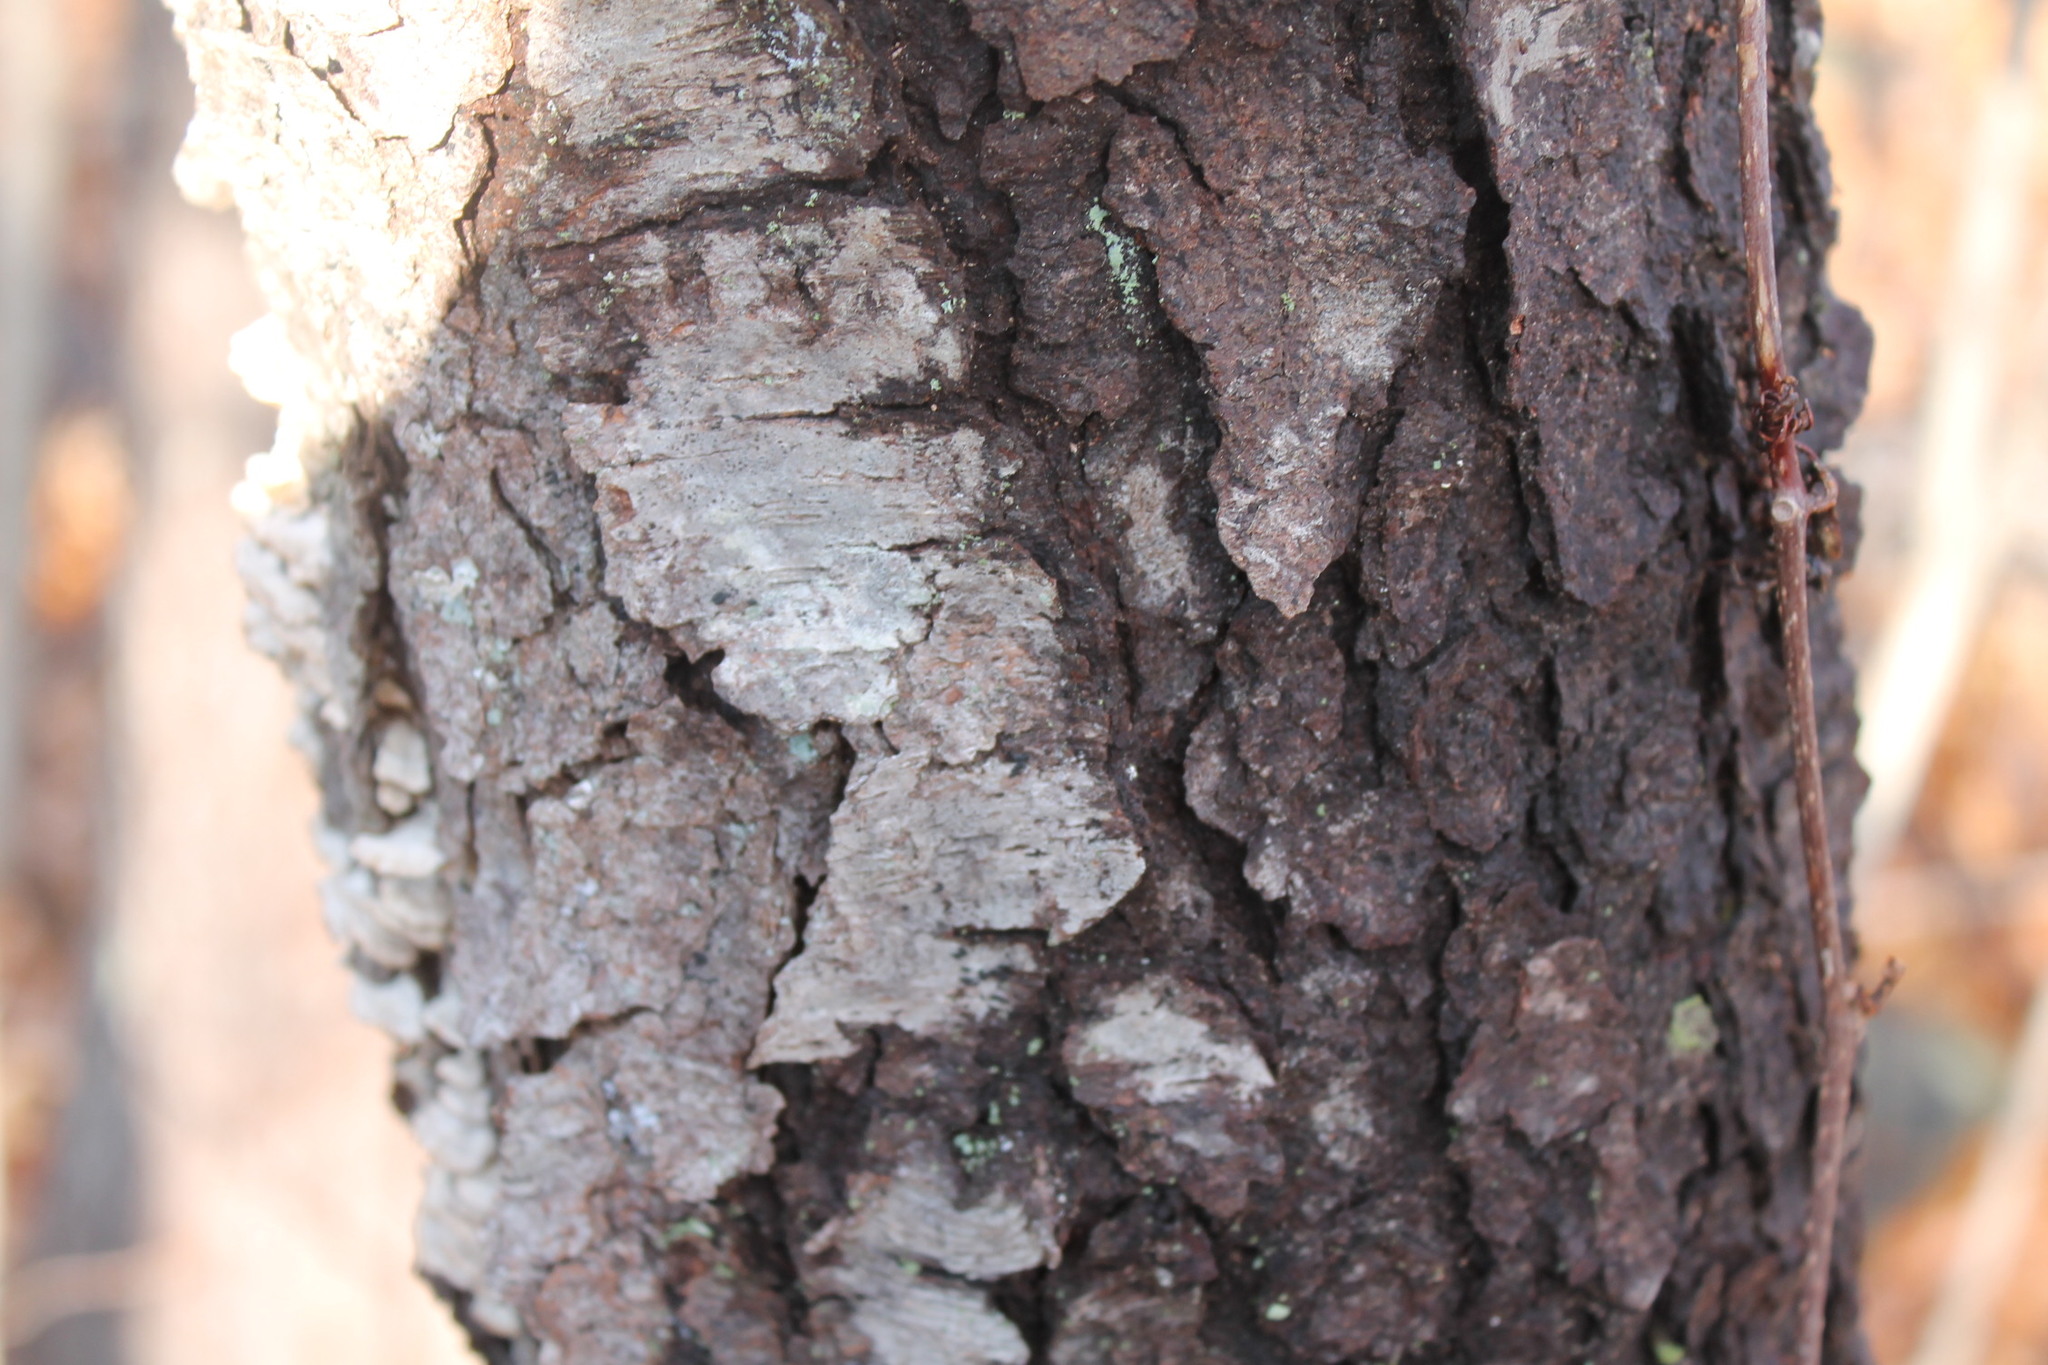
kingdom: Plantae
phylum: Tracheophyta
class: Magnoliopsida
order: Rosales
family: Rosaceae
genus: Prunus
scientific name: Prunus serotina
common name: Black cherry
